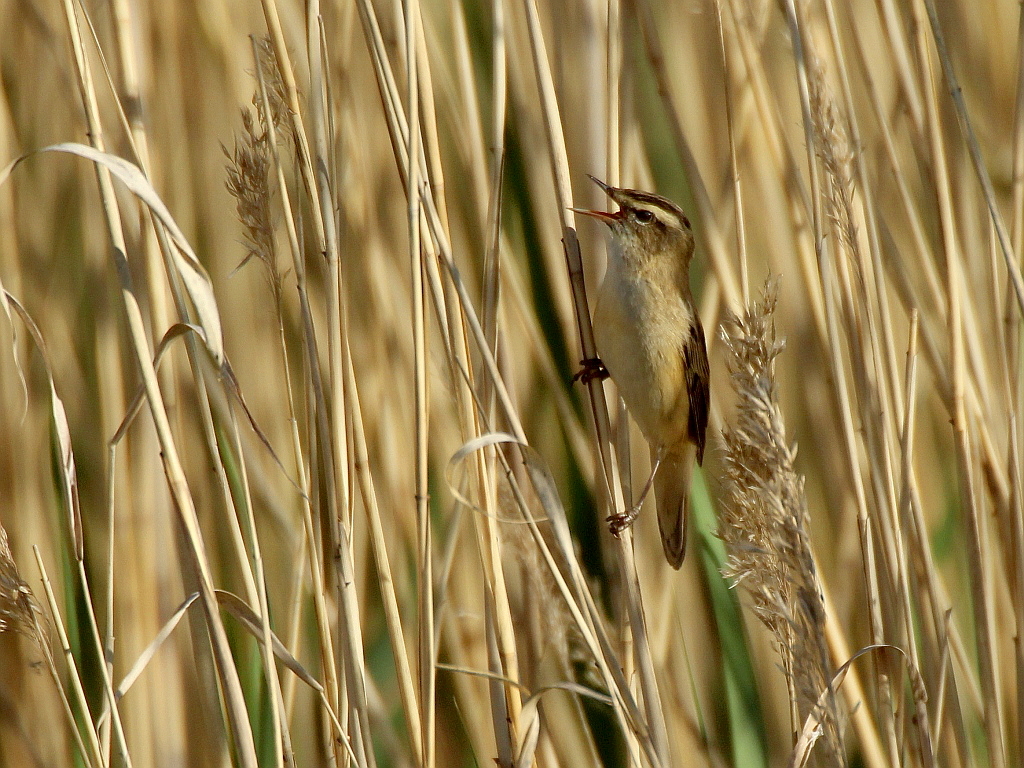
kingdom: Animalia
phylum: Chordata
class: Aves
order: Passeriformes
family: Acrocephalidae
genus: Acrocephalus
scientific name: Acrocephalus schoenobaenus
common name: Sedge warbler
